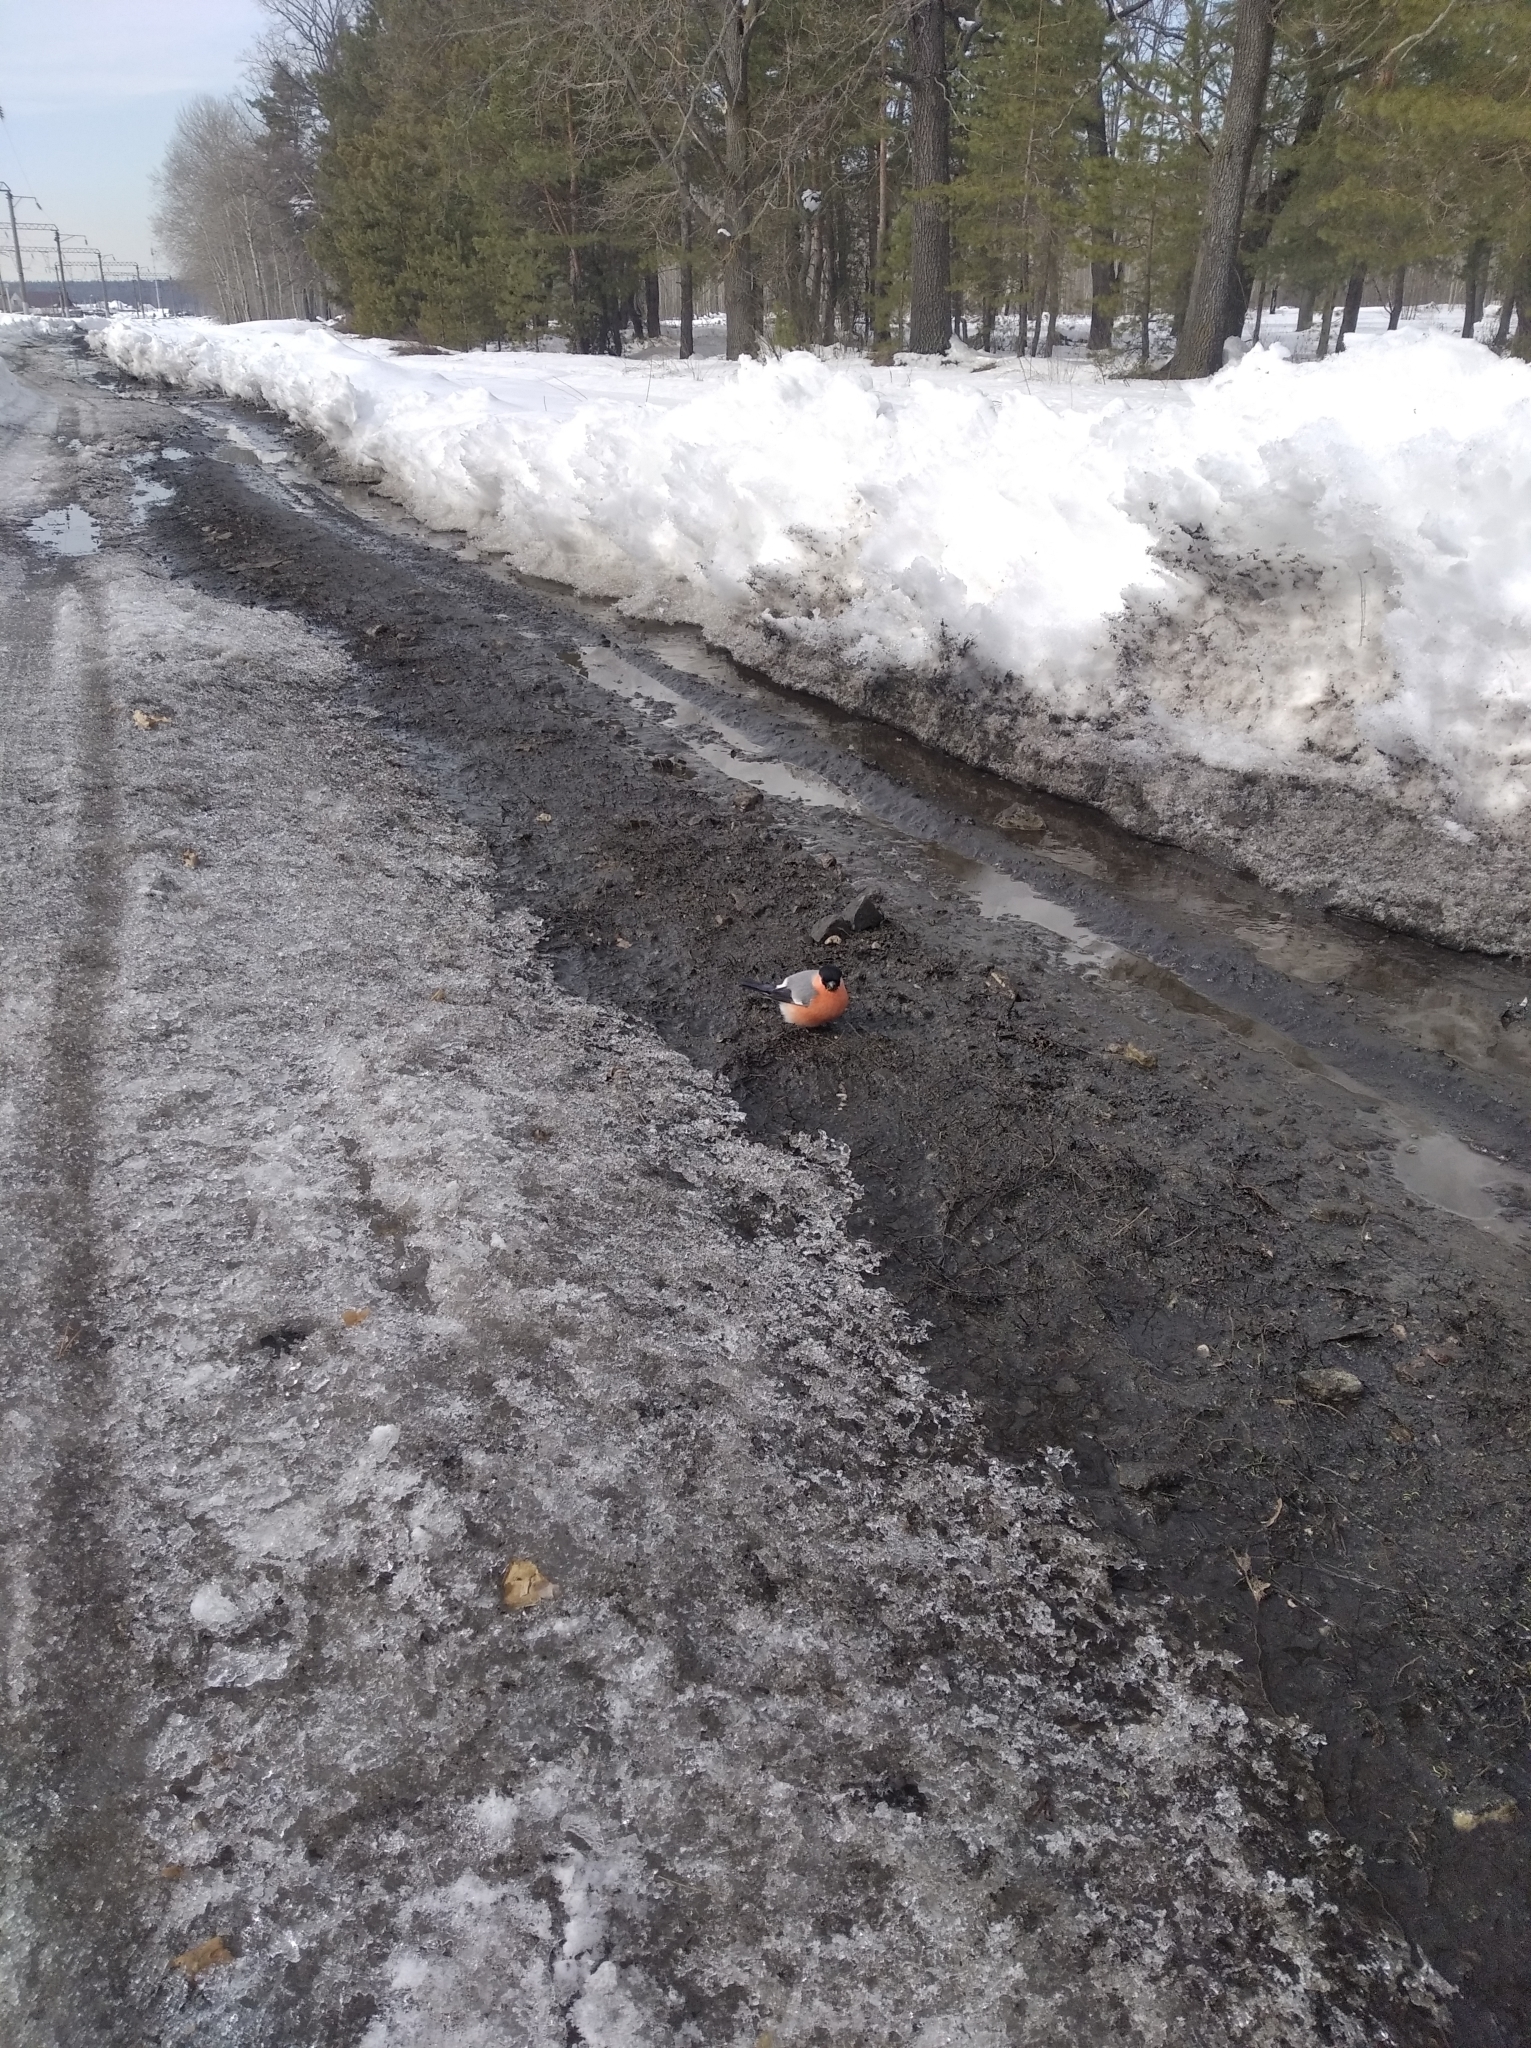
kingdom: Animalia
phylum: Chordata
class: Aves
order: Passeriformes
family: Fringillidae
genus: Pyrrhula
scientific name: Pyrrhula pyrrhula
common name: Eurasian bullfinch
